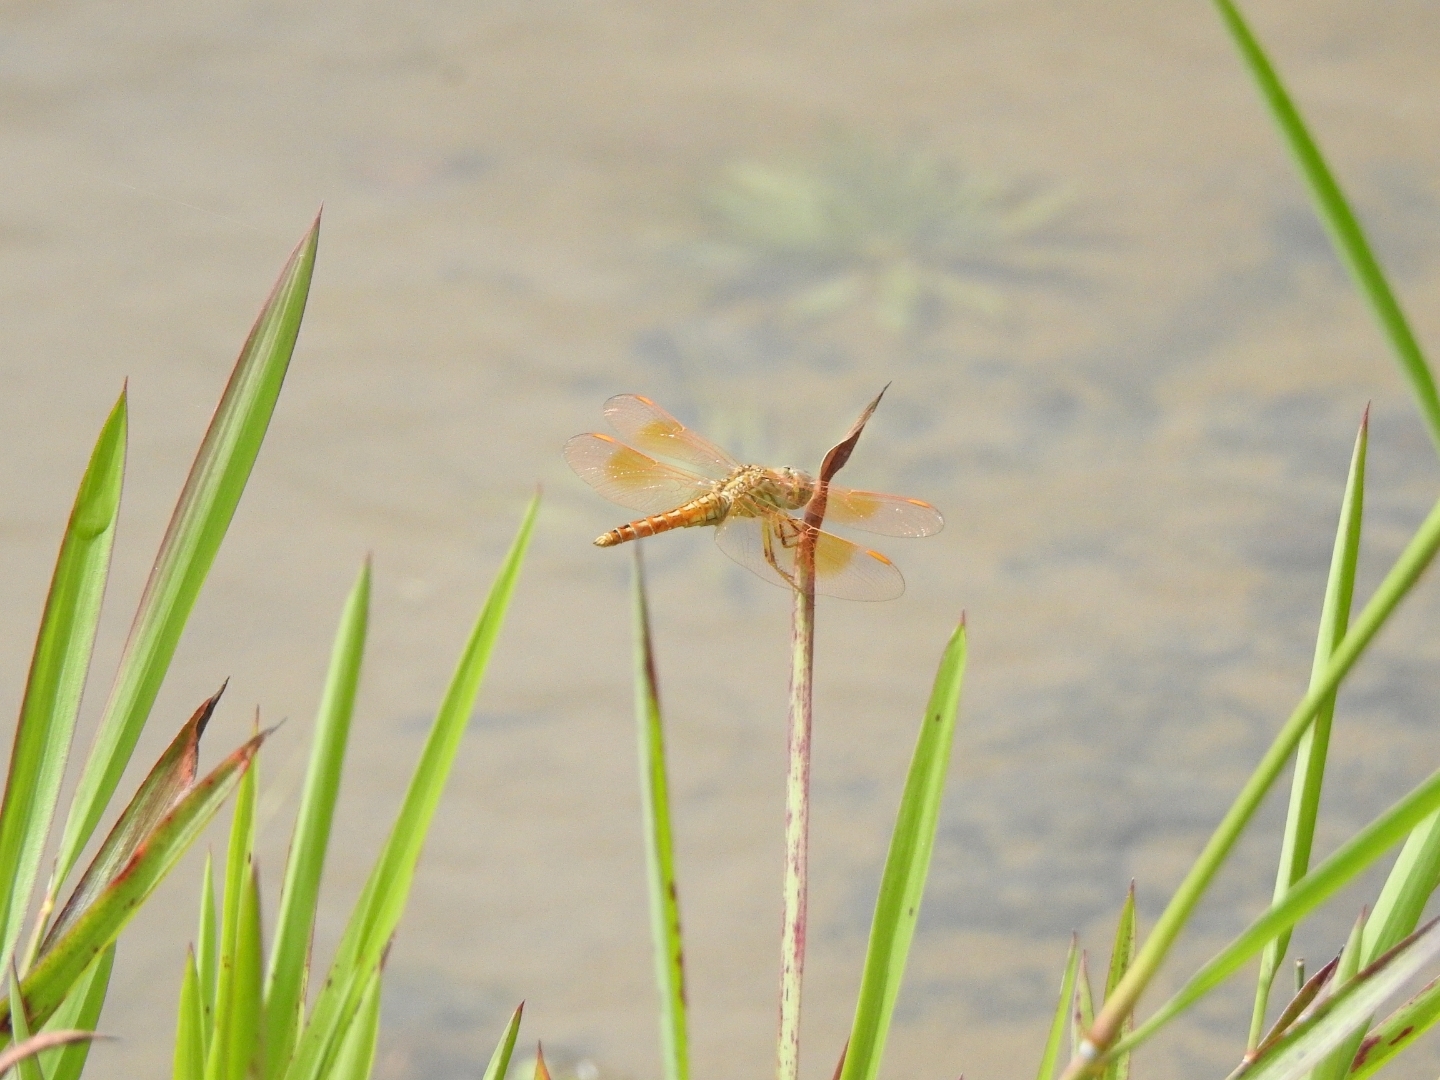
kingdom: Animalia
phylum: Arthropoda
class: Insecta
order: Odonata
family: Libellulidae
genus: Brachythemis
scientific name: Brachythemis contaminata
